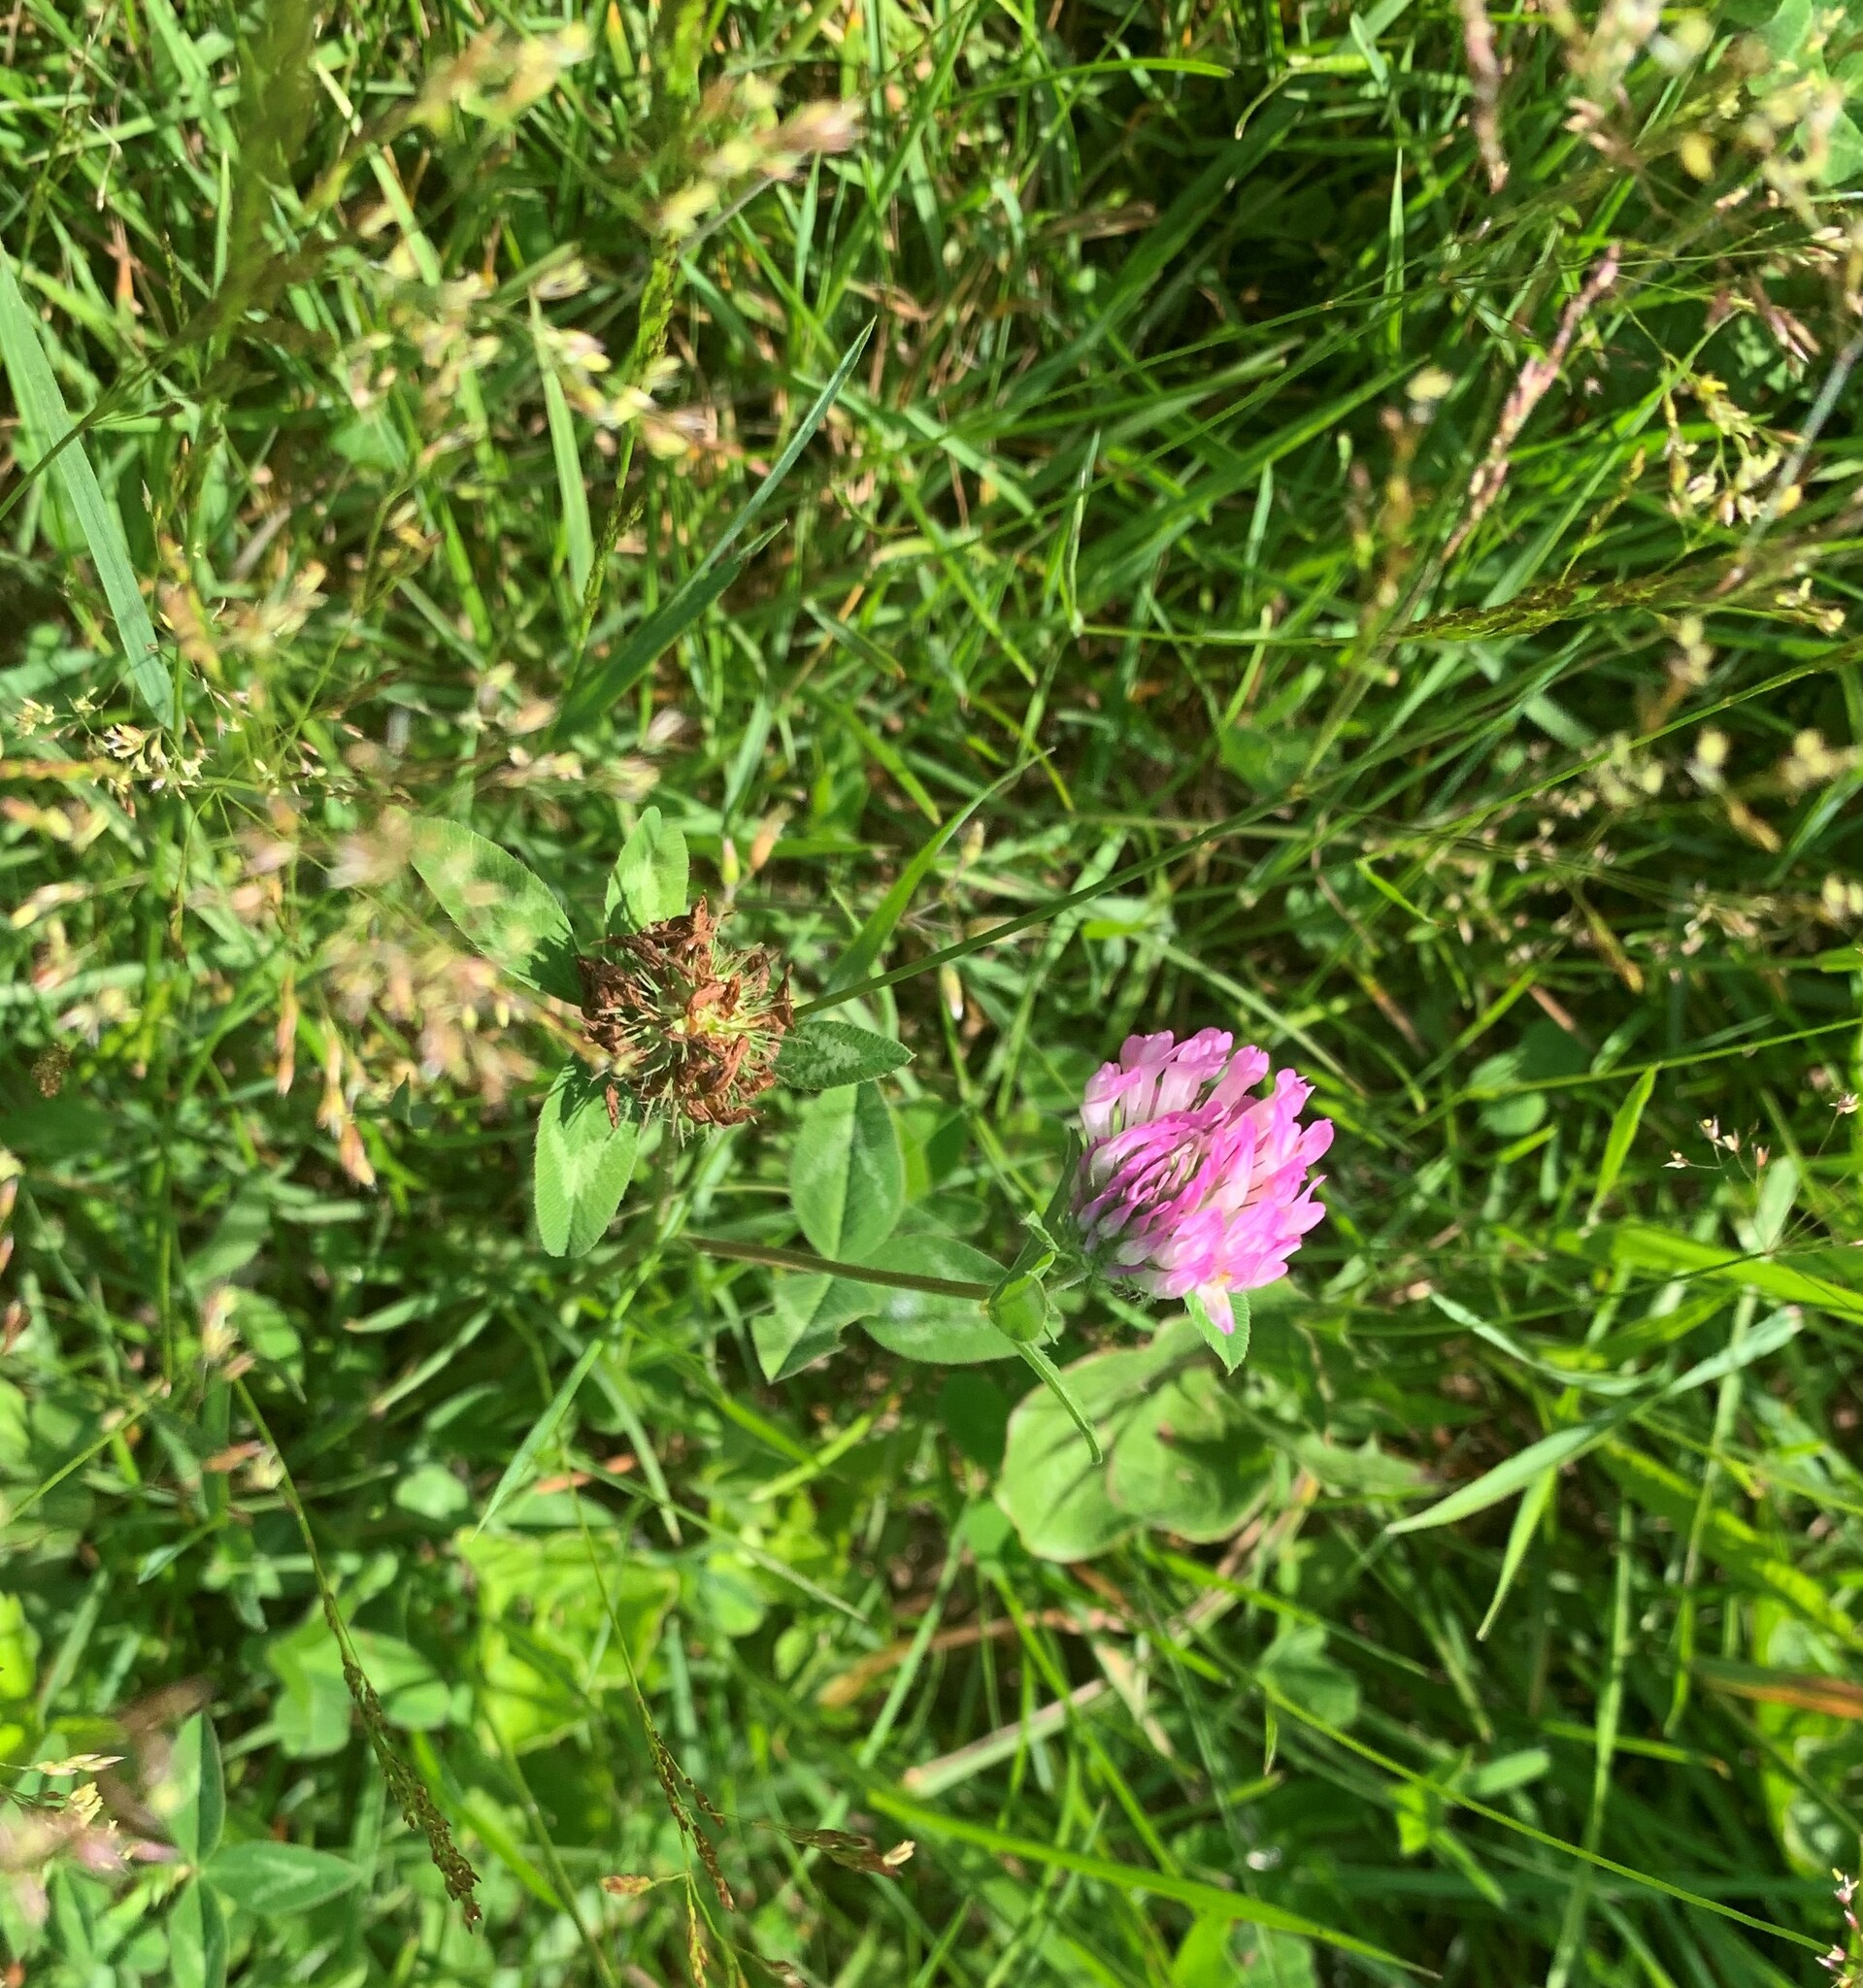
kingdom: Plantae
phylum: Tracheophyta
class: Magnoliopsida
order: Fabales
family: Fabaceae
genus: Trifolium
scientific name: Trifolium pratense
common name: Red clover
